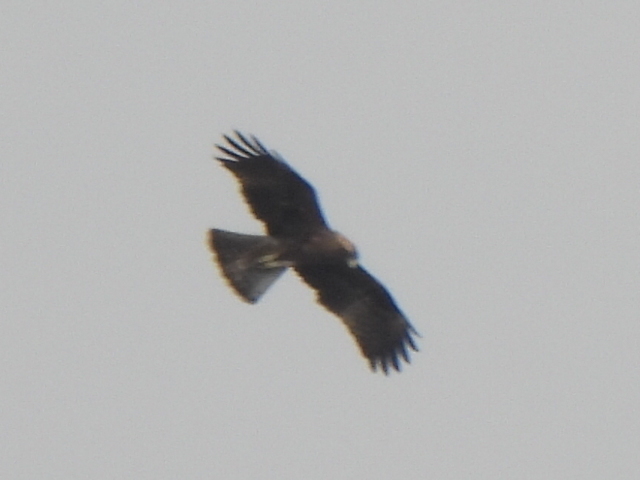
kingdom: Animalia
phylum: Chordata
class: Aves
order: Accipitriformes
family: Accipitridae
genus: Hieraaetus
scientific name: Hieraaetus pennatus
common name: Booted eagle
